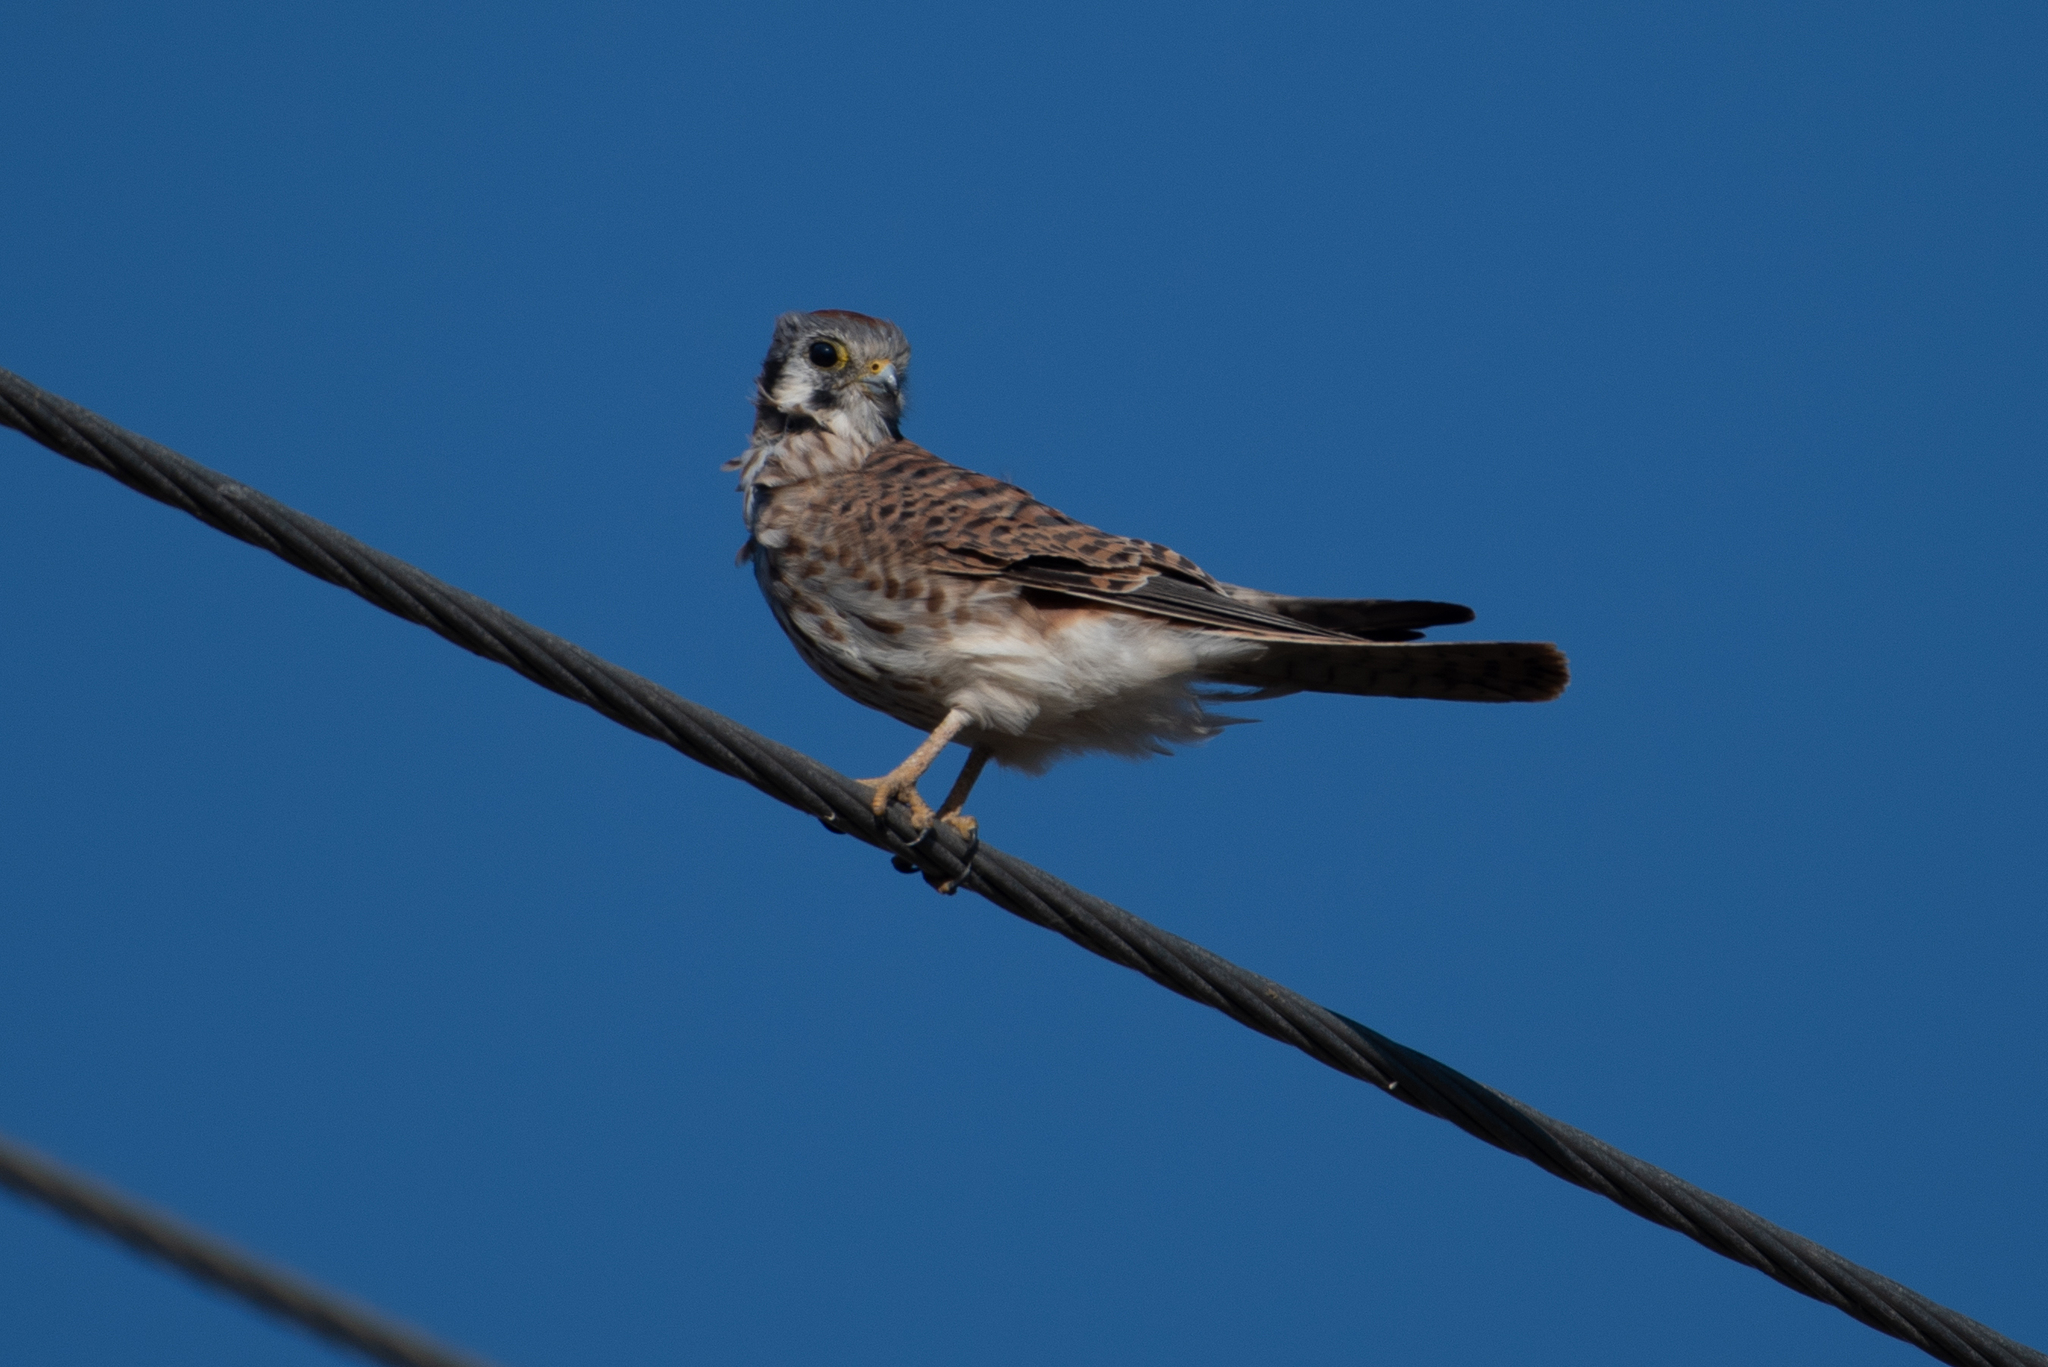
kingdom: Animalia
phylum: Chordata
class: Aves
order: Falconiformes
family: Falconidae
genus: Falco
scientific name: Falco sparverius
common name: American kestrel
